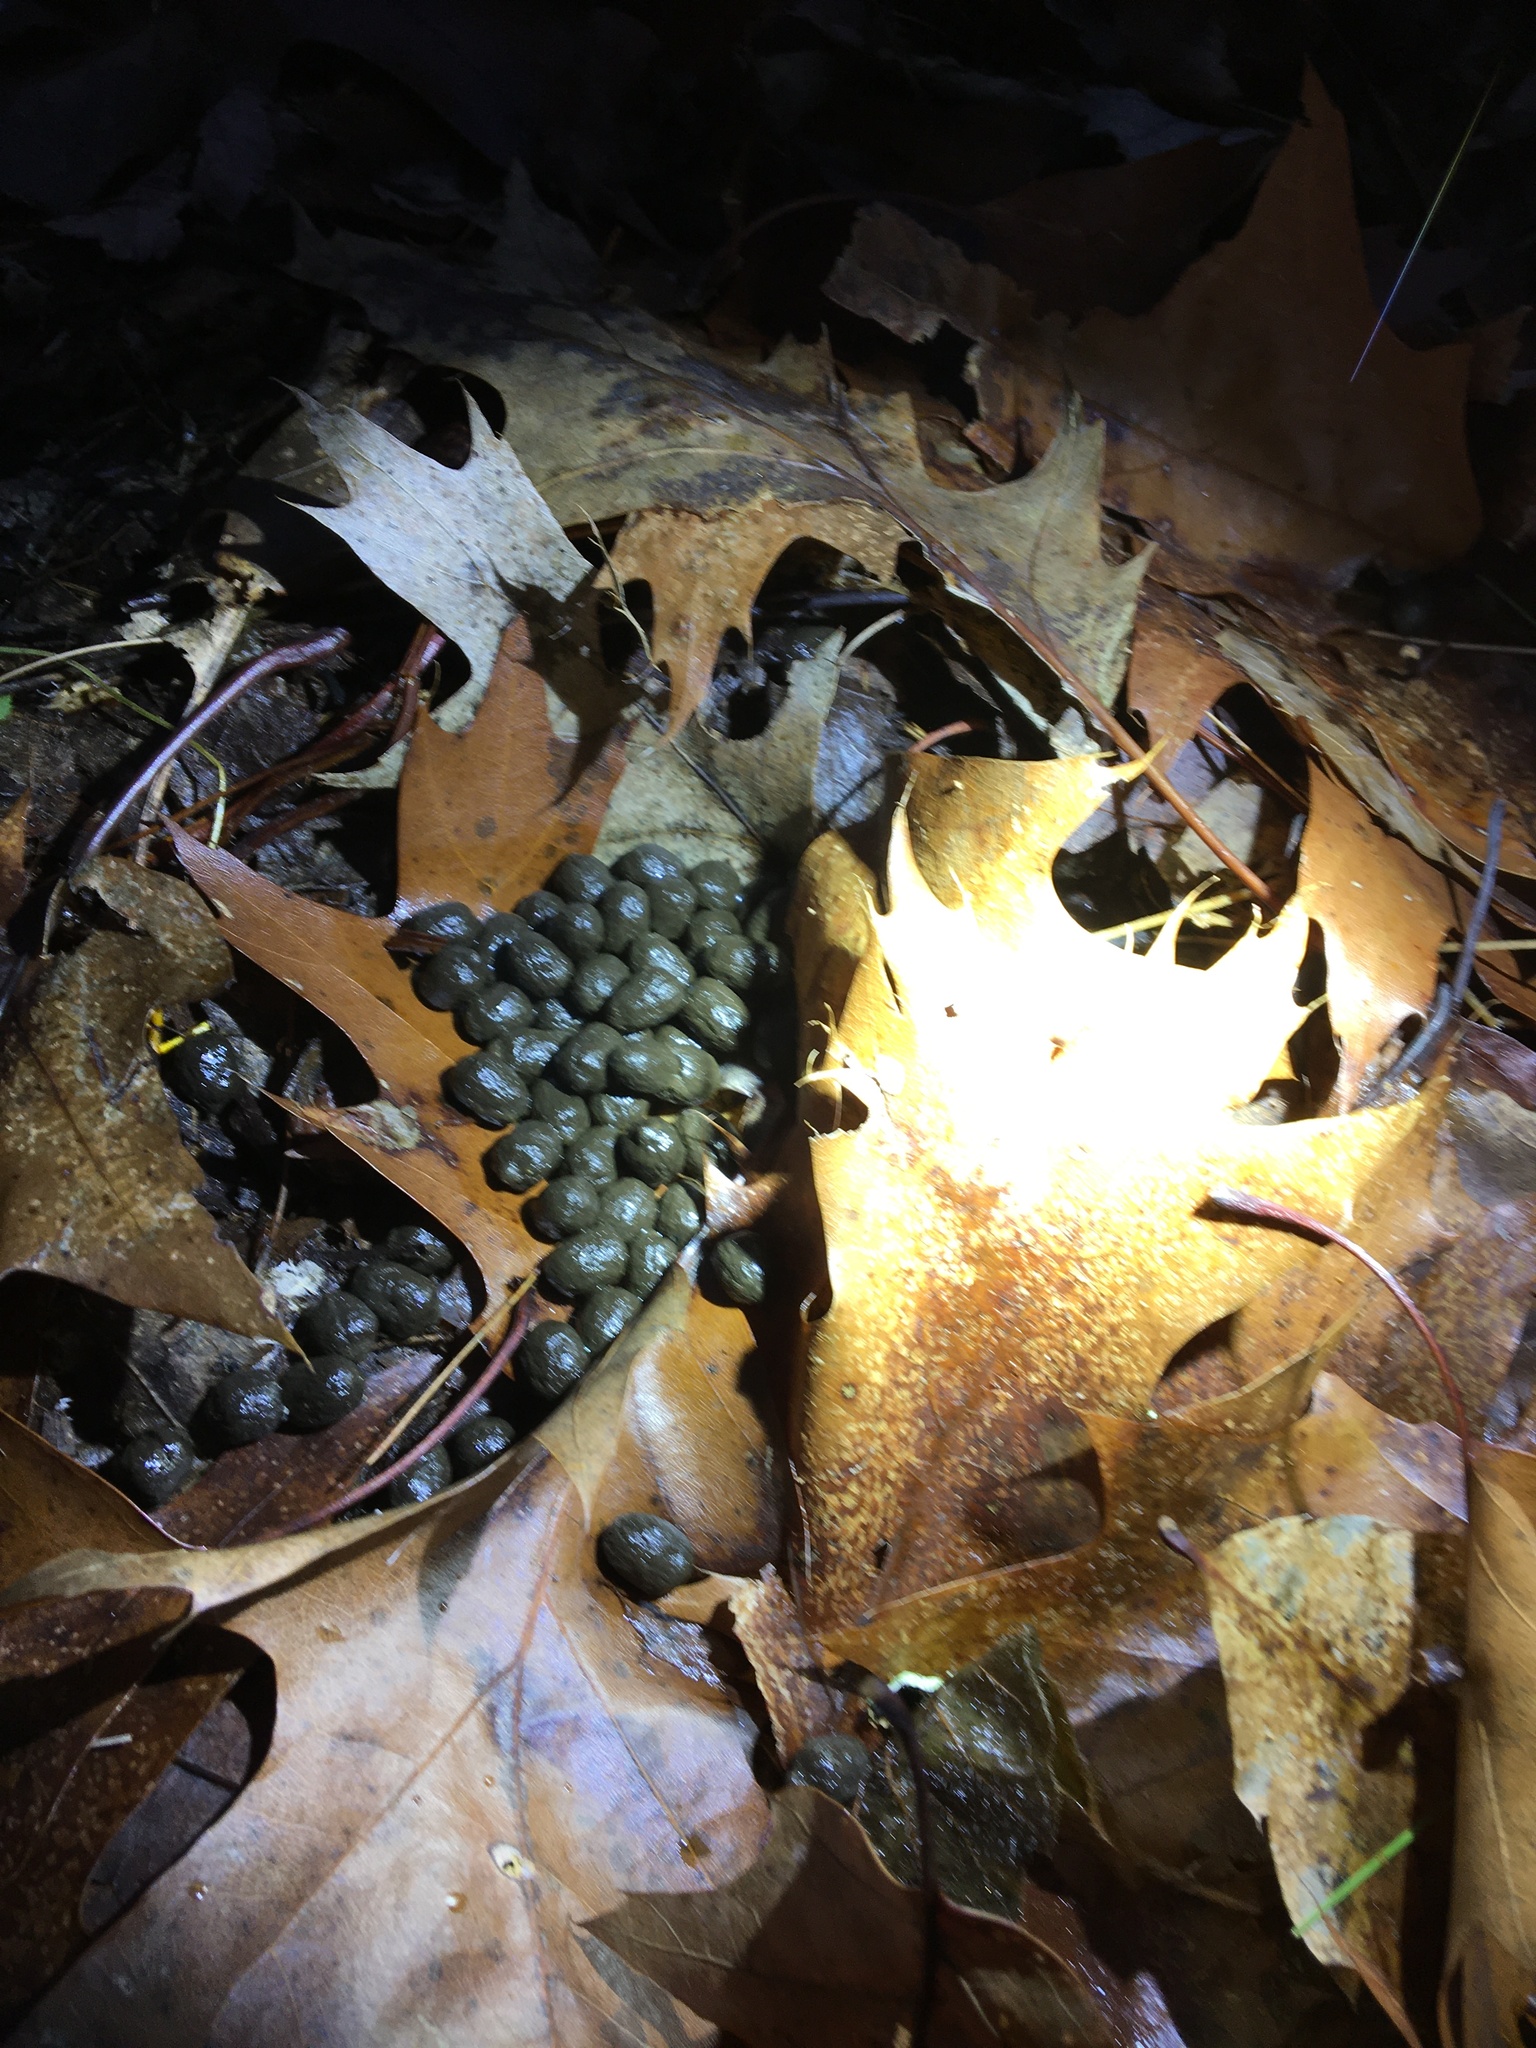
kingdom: Animalia
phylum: Chordata
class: Mammalia
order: Artiodactyla
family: Cervidae
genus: Odocoileus
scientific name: Odocoileus virginianus
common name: White-tailed deer
